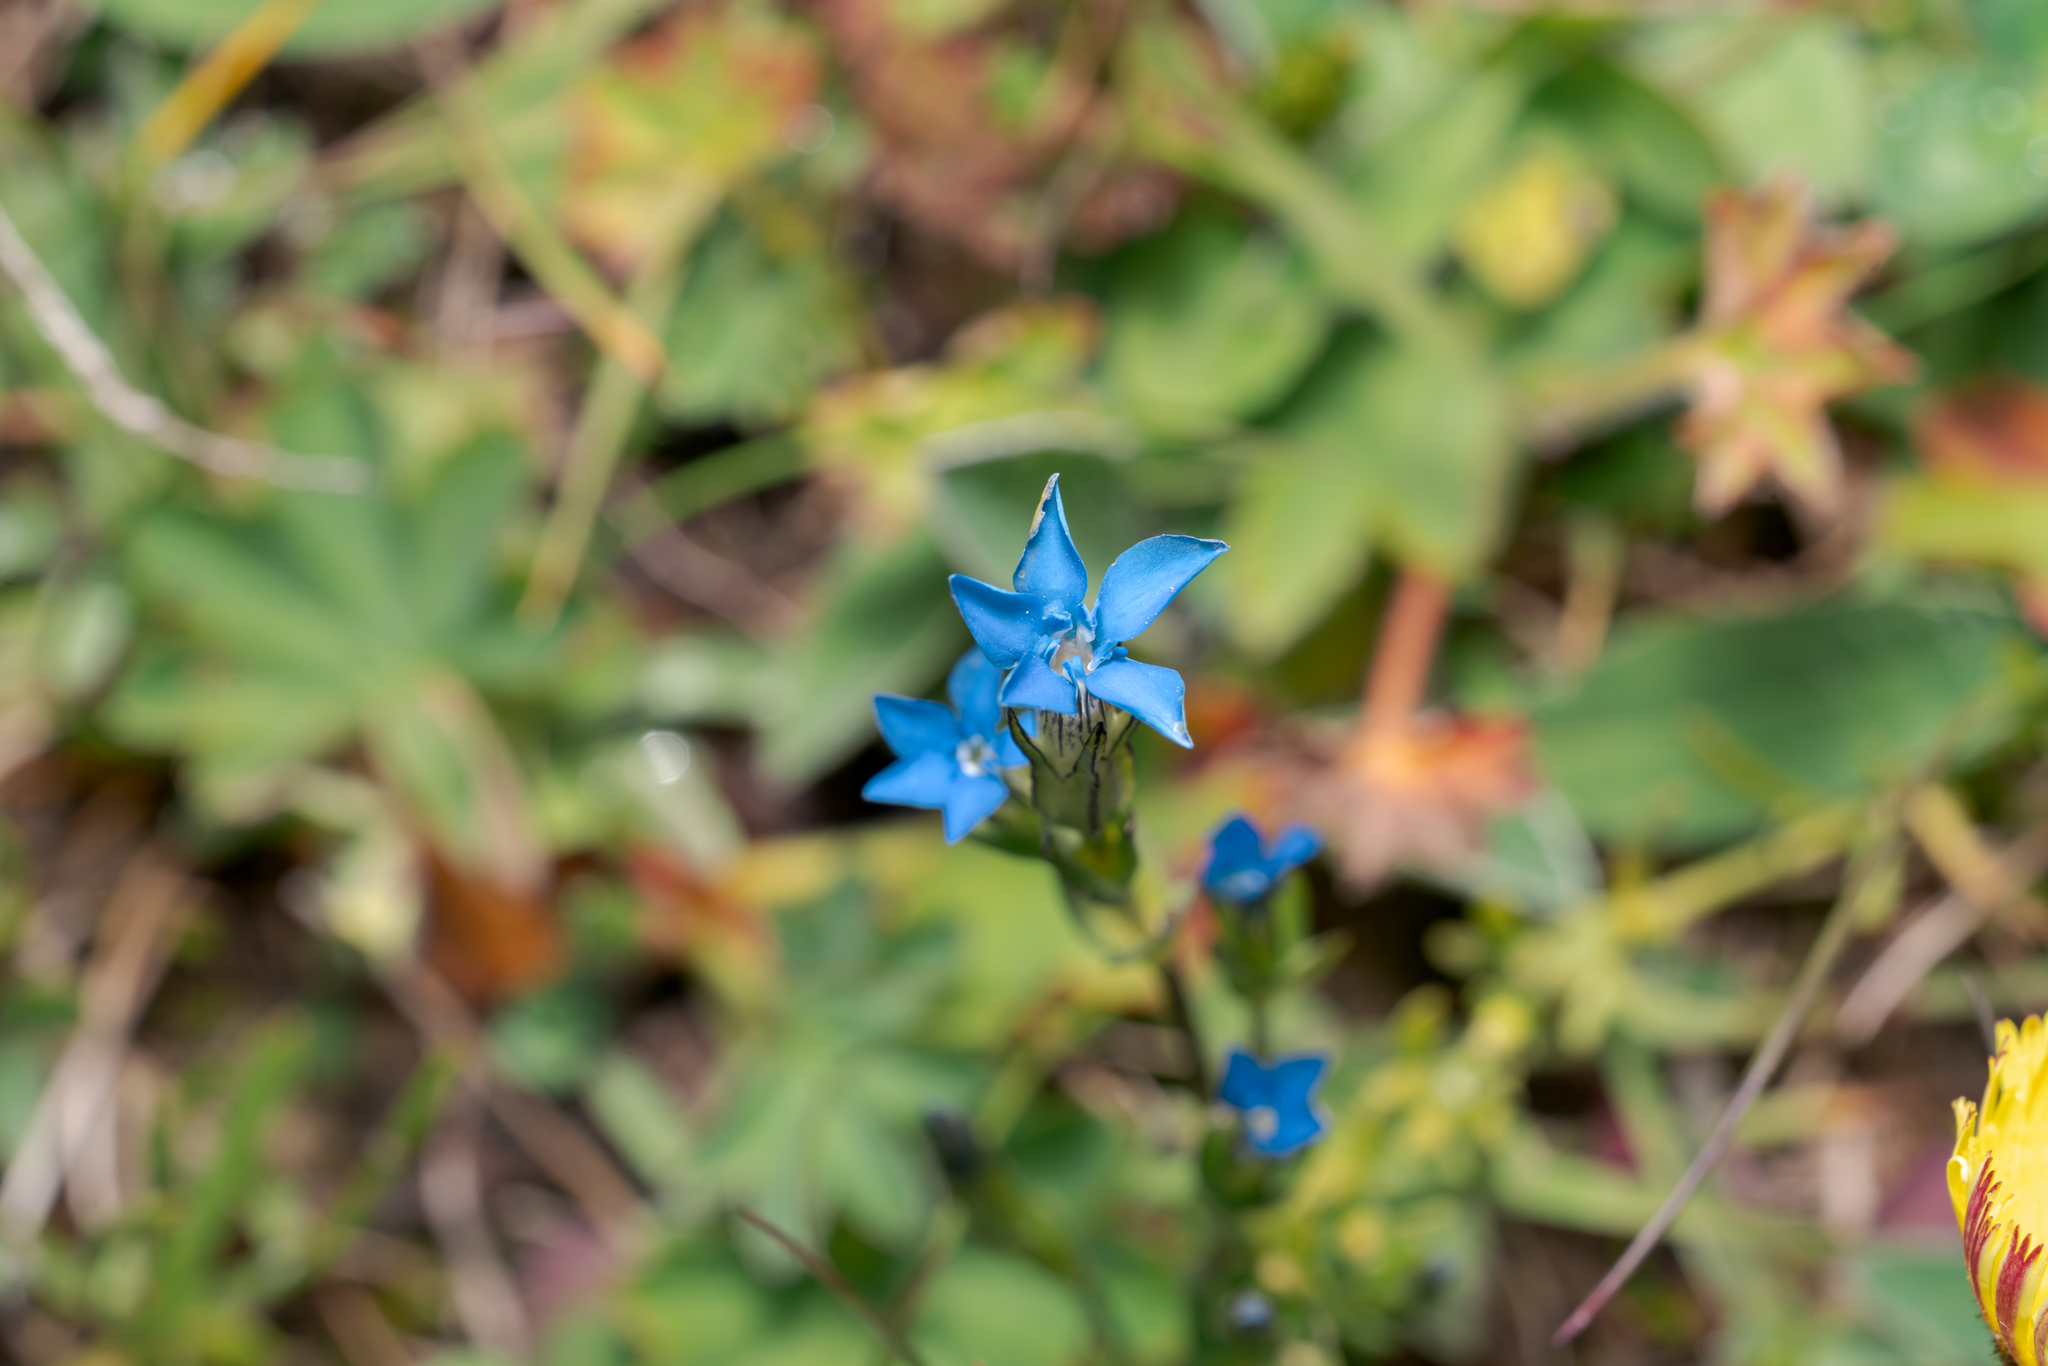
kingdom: Plantae
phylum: Tracheophyta
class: Magnoliopsida
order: Gentianales
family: Gentianaceae
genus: Gentiana
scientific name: Gentiana nivalis
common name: Alpine gentian
